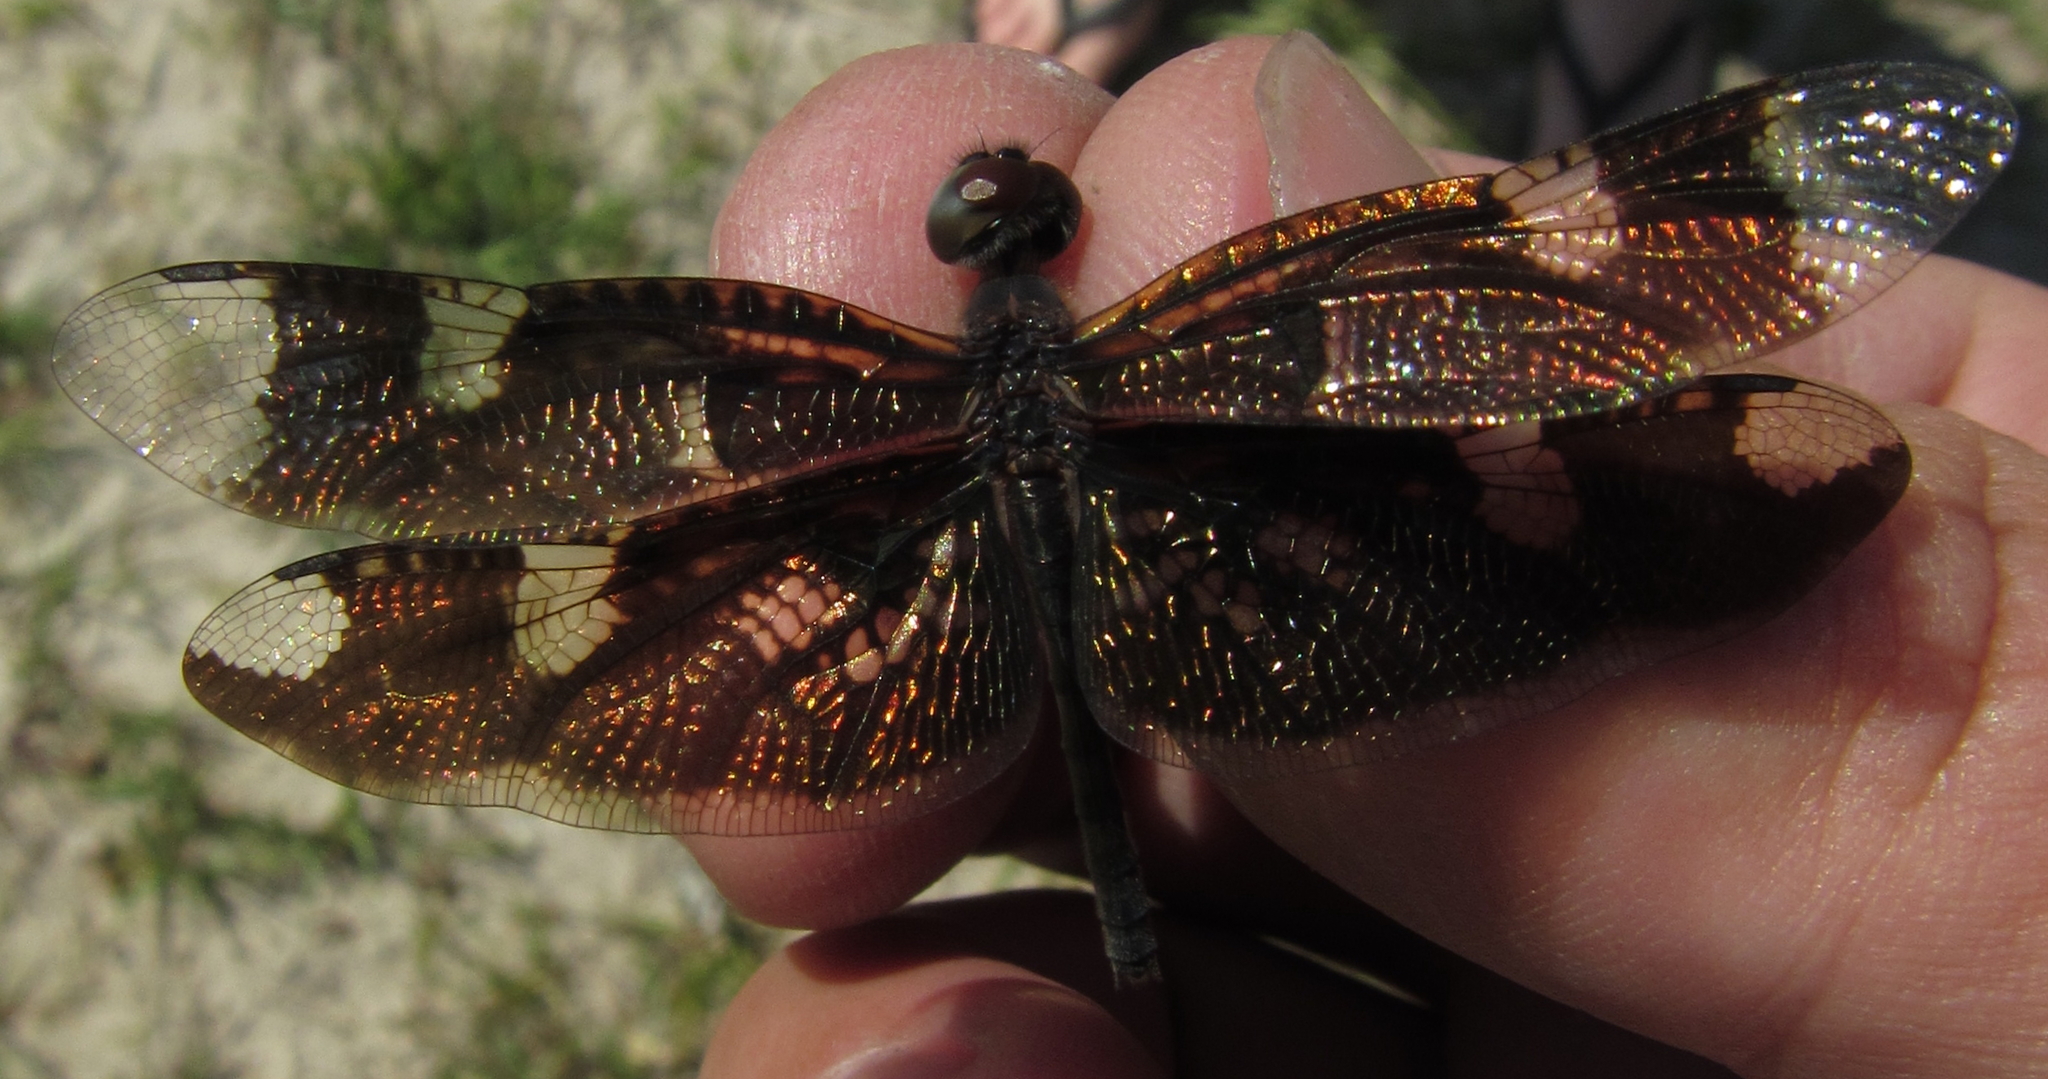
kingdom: Animalia
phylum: Arthropoda
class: Insecta
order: Odonata
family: Libellulidae
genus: Rhyothemis
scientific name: Rhyothemis fenestrina
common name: Skylight flutterer
